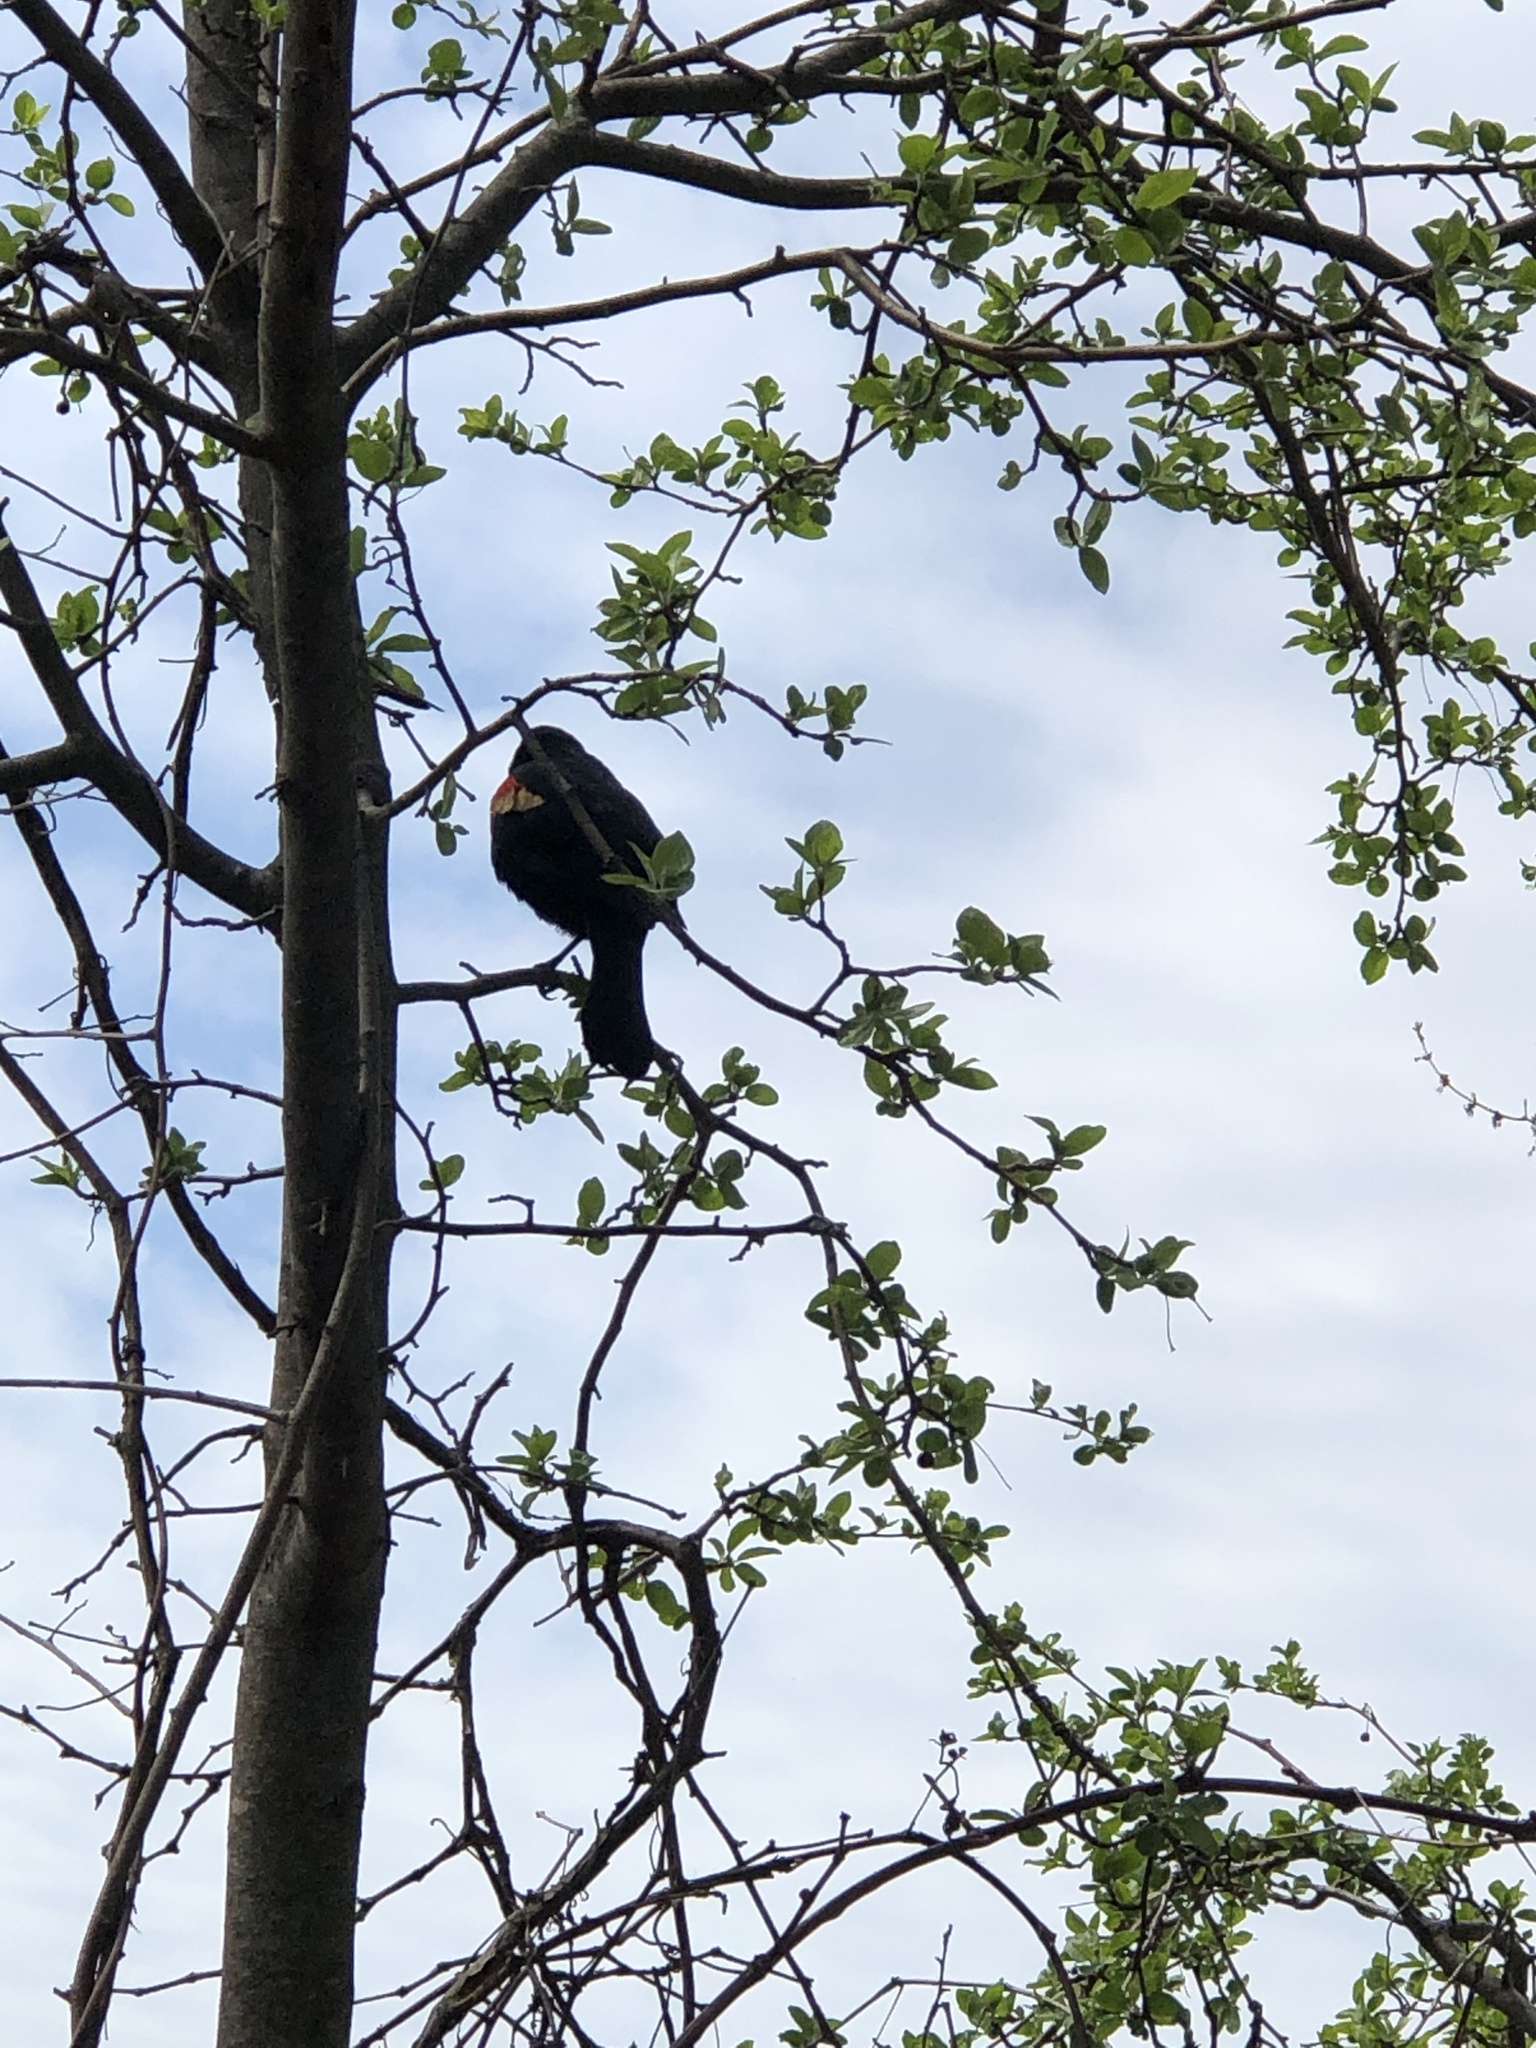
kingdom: Animalia
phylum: Chordata
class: Aves
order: Passeriformes
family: Icteridae
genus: Agelaius
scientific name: Agelaius phoeniceus
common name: Red-winged blackbird
